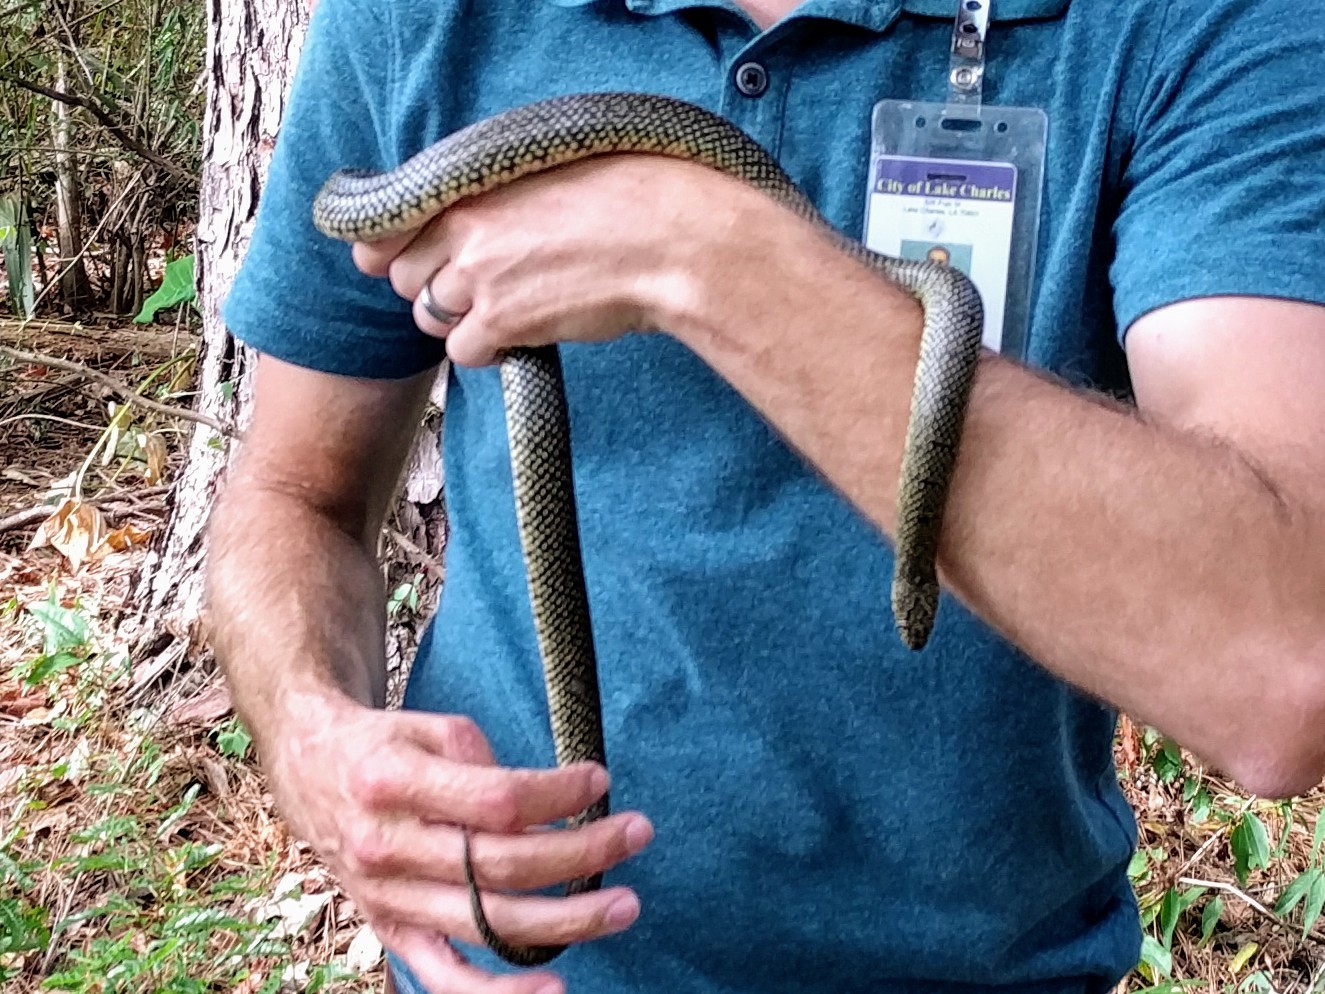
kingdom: Animalia
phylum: Chordata
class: Squamata
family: Colubridae
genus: Lampropeltis
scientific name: Lampropeltis holbrooki
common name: Speckled kingsnake
